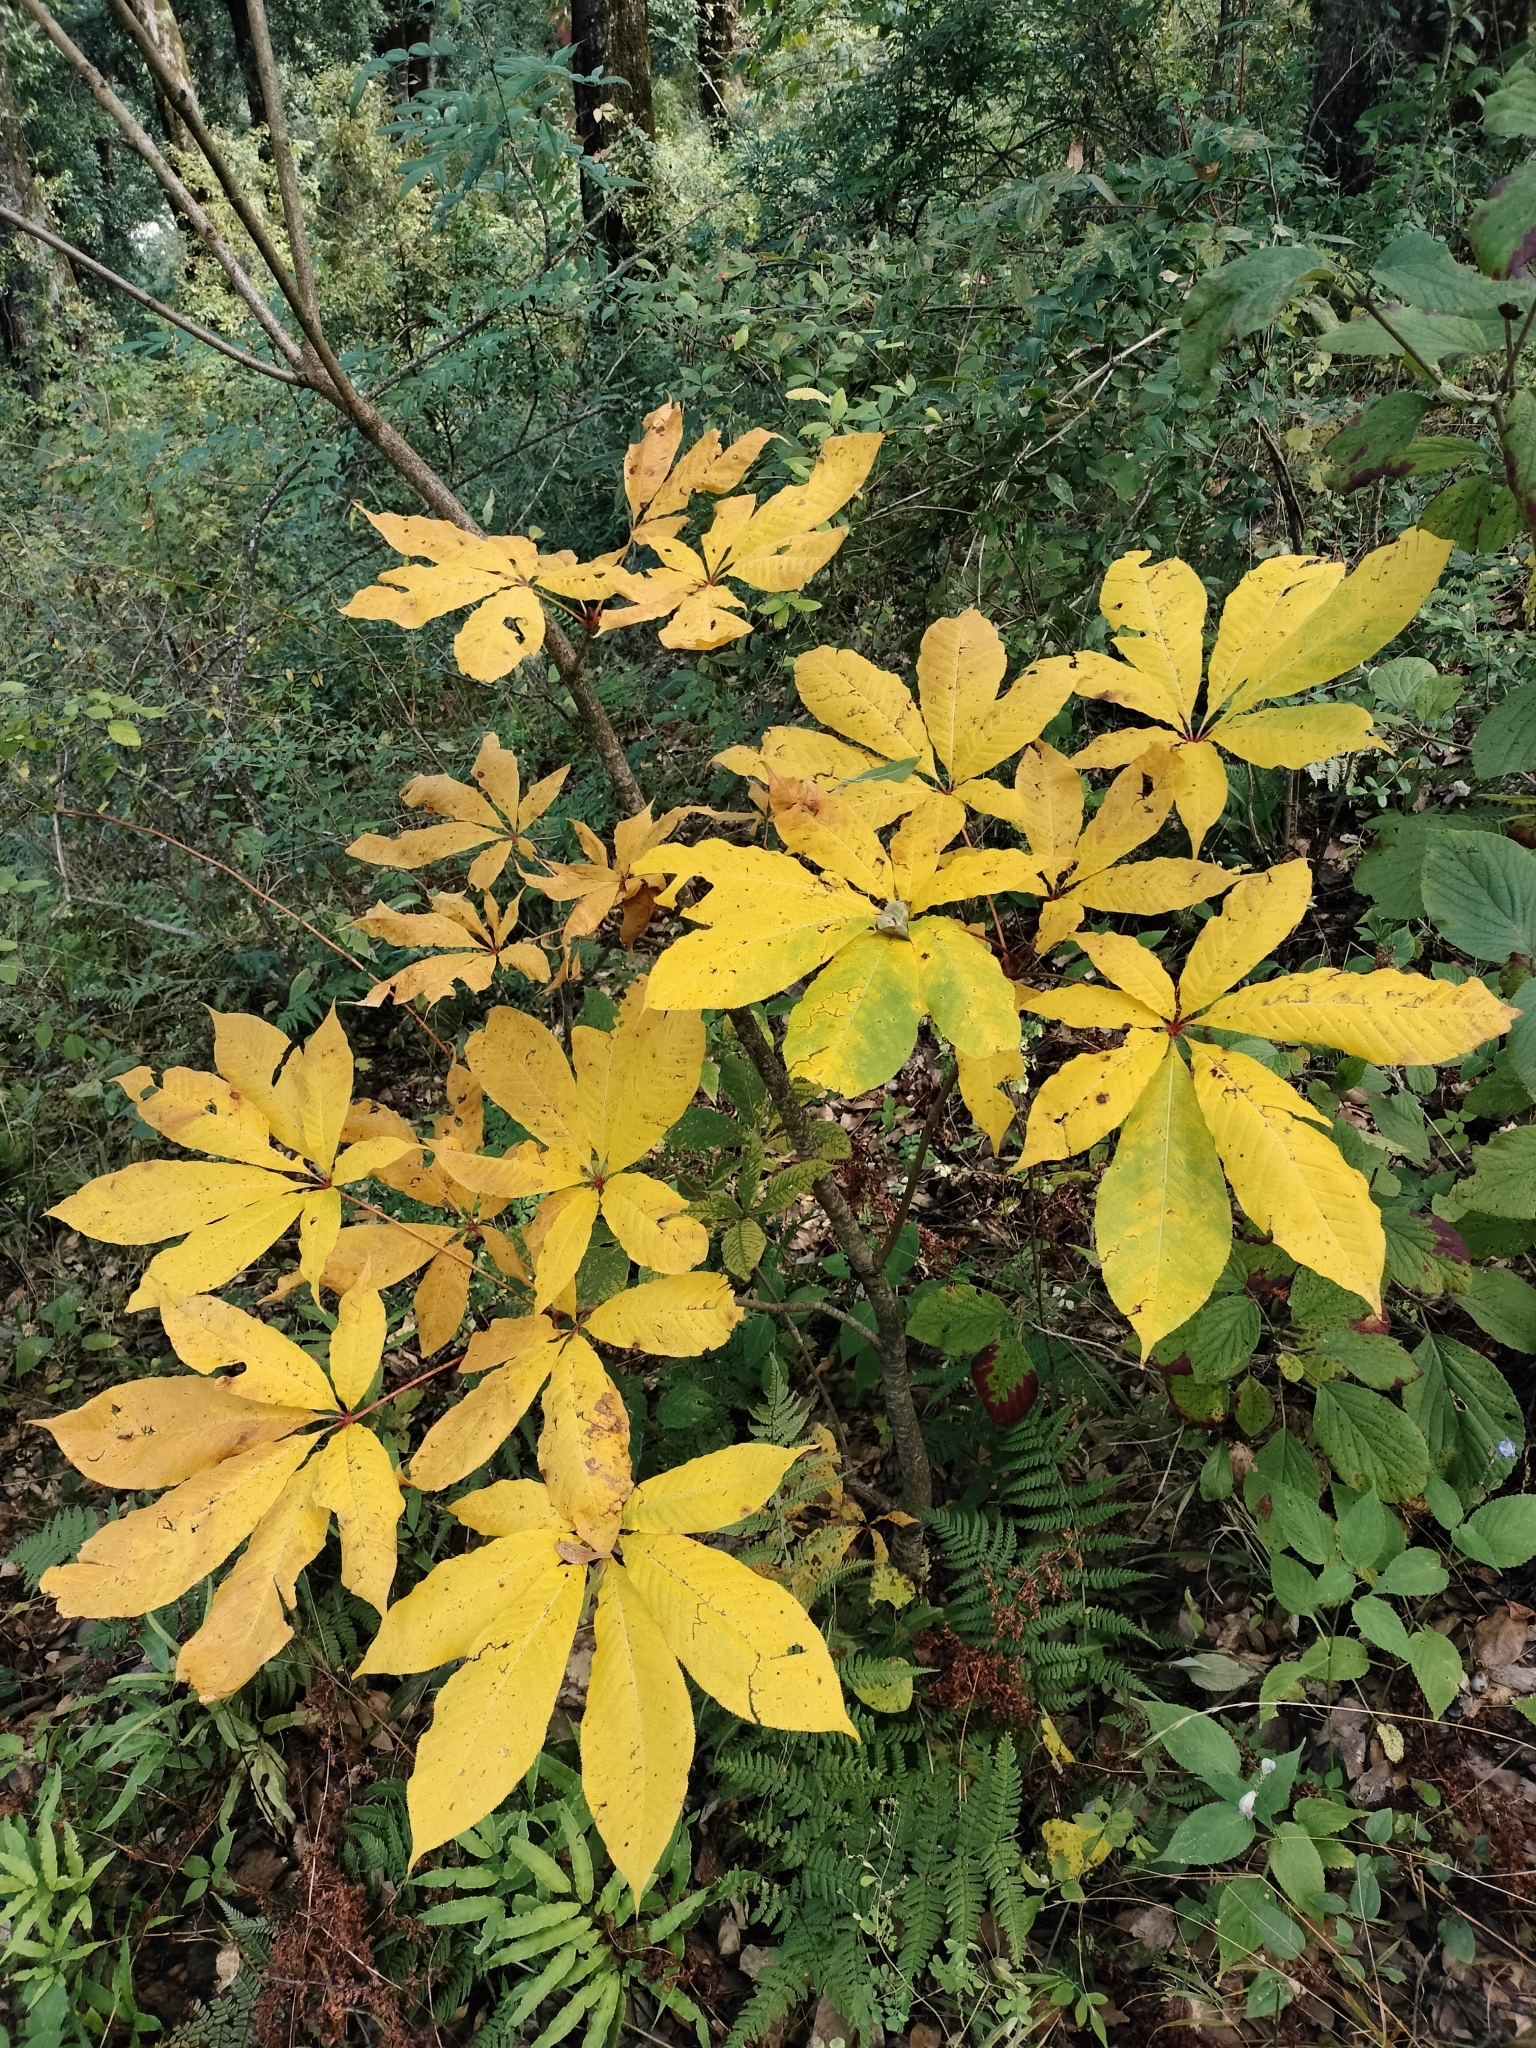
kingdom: Plantae
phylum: Tracheophyta
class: Magnoliopsida
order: Sapindales
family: Sapindaceae
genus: Aesculus
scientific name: Aesculus hippocastanum
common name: Horse-chestnut
